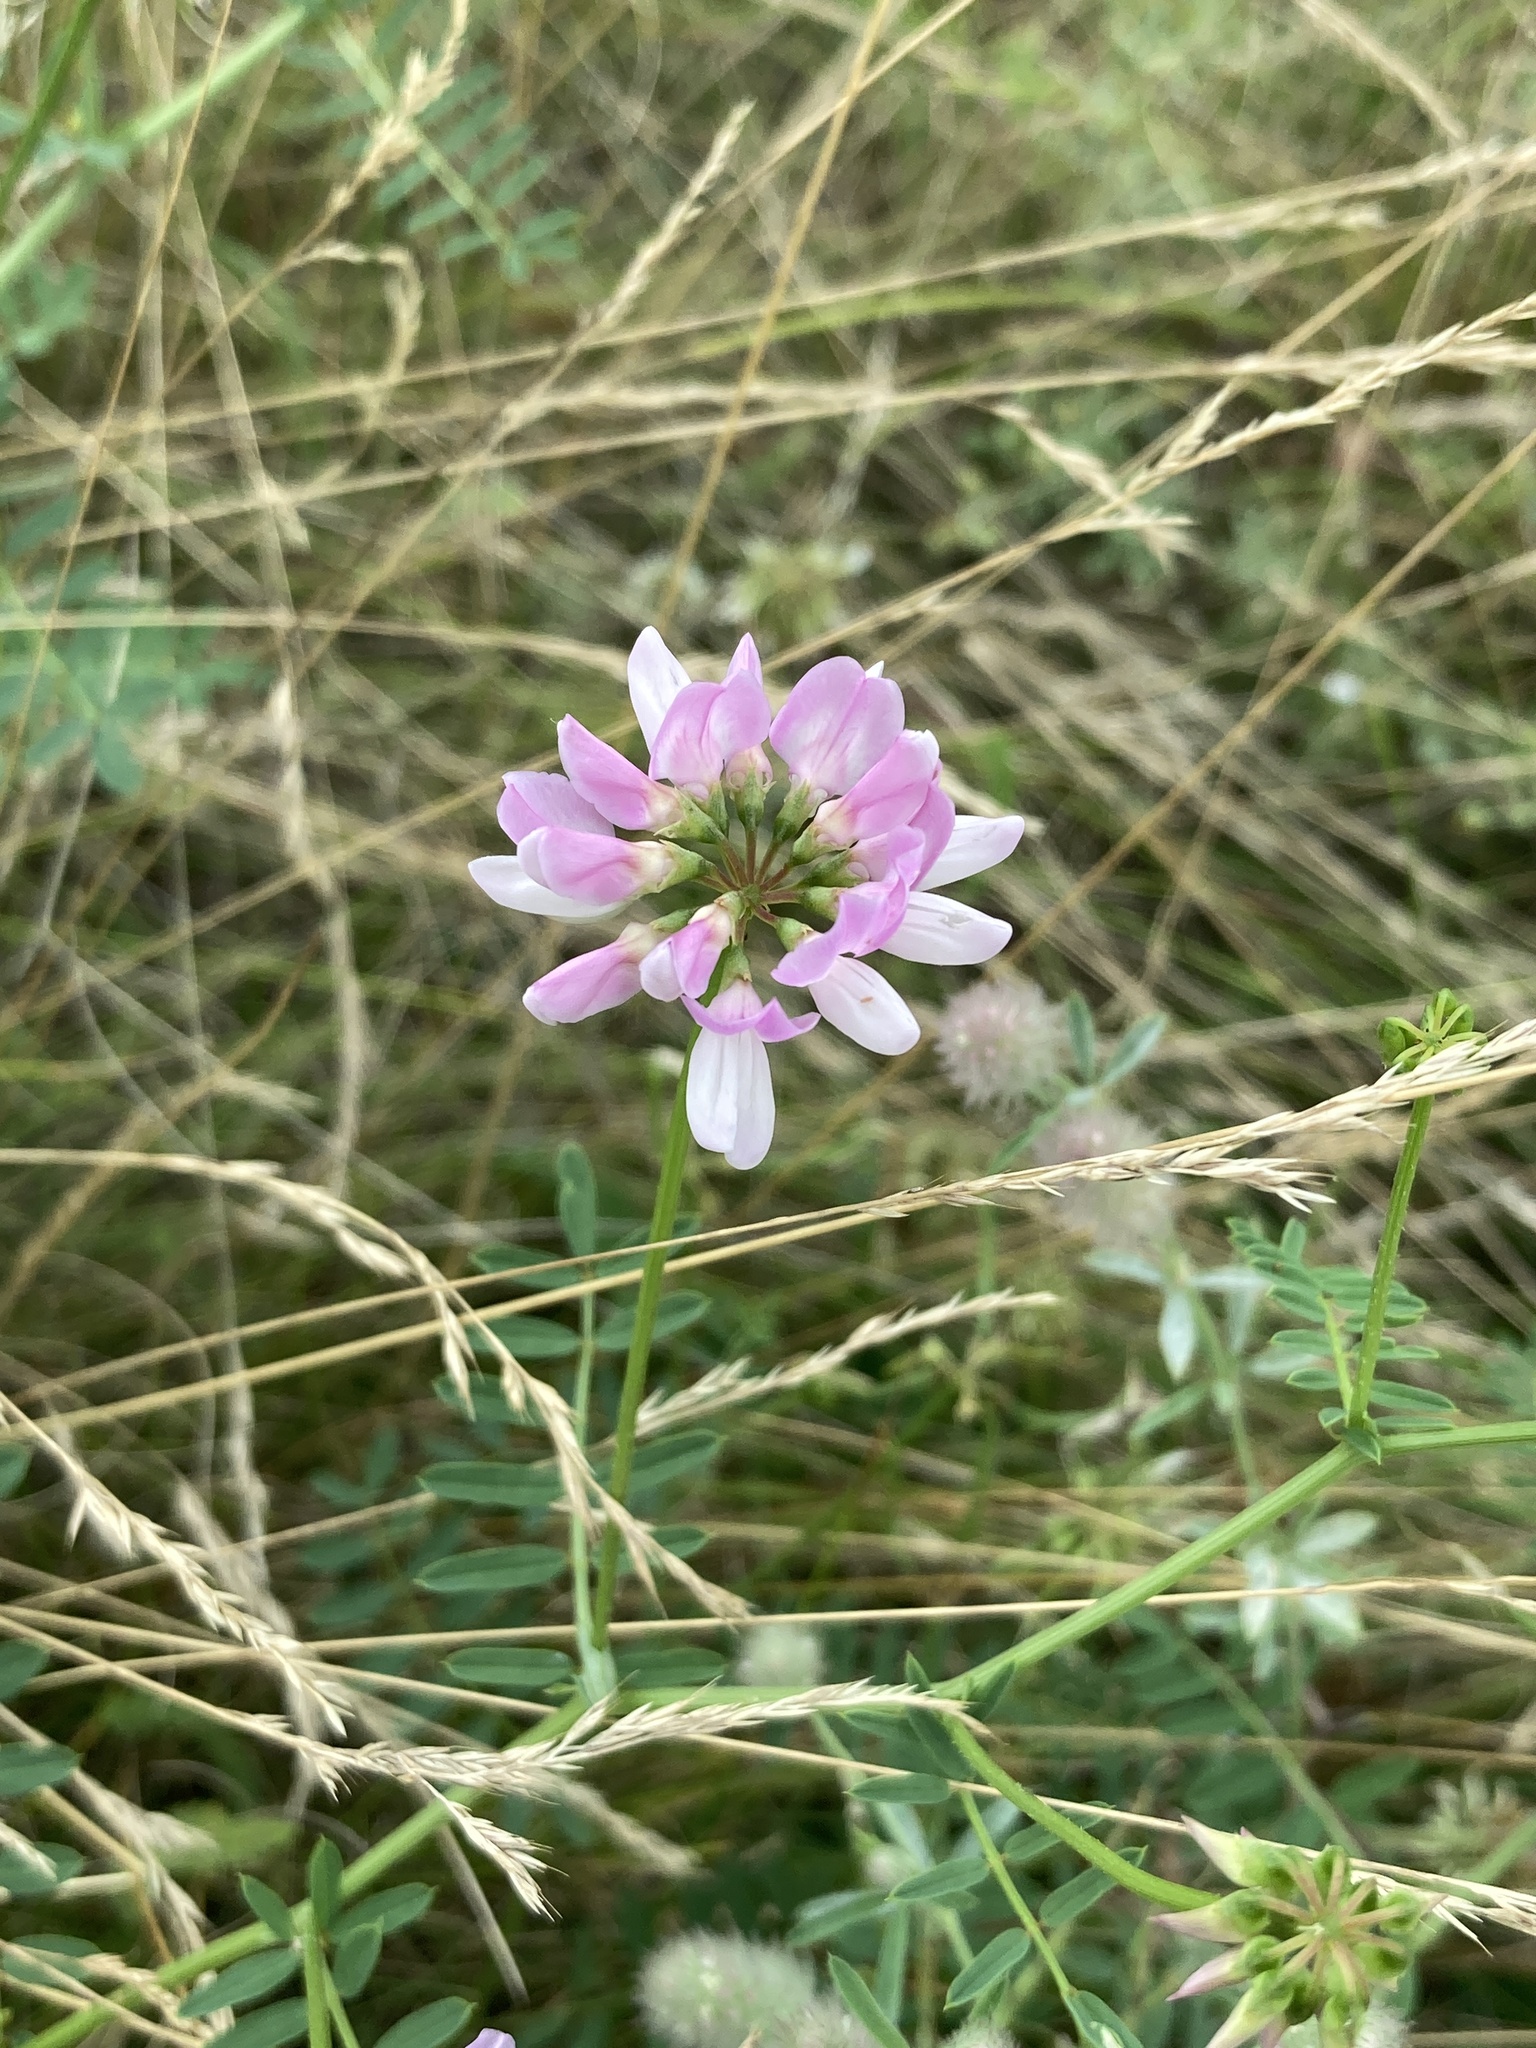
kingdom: Plantae
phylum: Tracheophyta
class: Magnoliopsida
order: Fabales
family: Fabaceae
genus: Coronilla
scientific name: Coronilla varia
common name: Crownvetch
